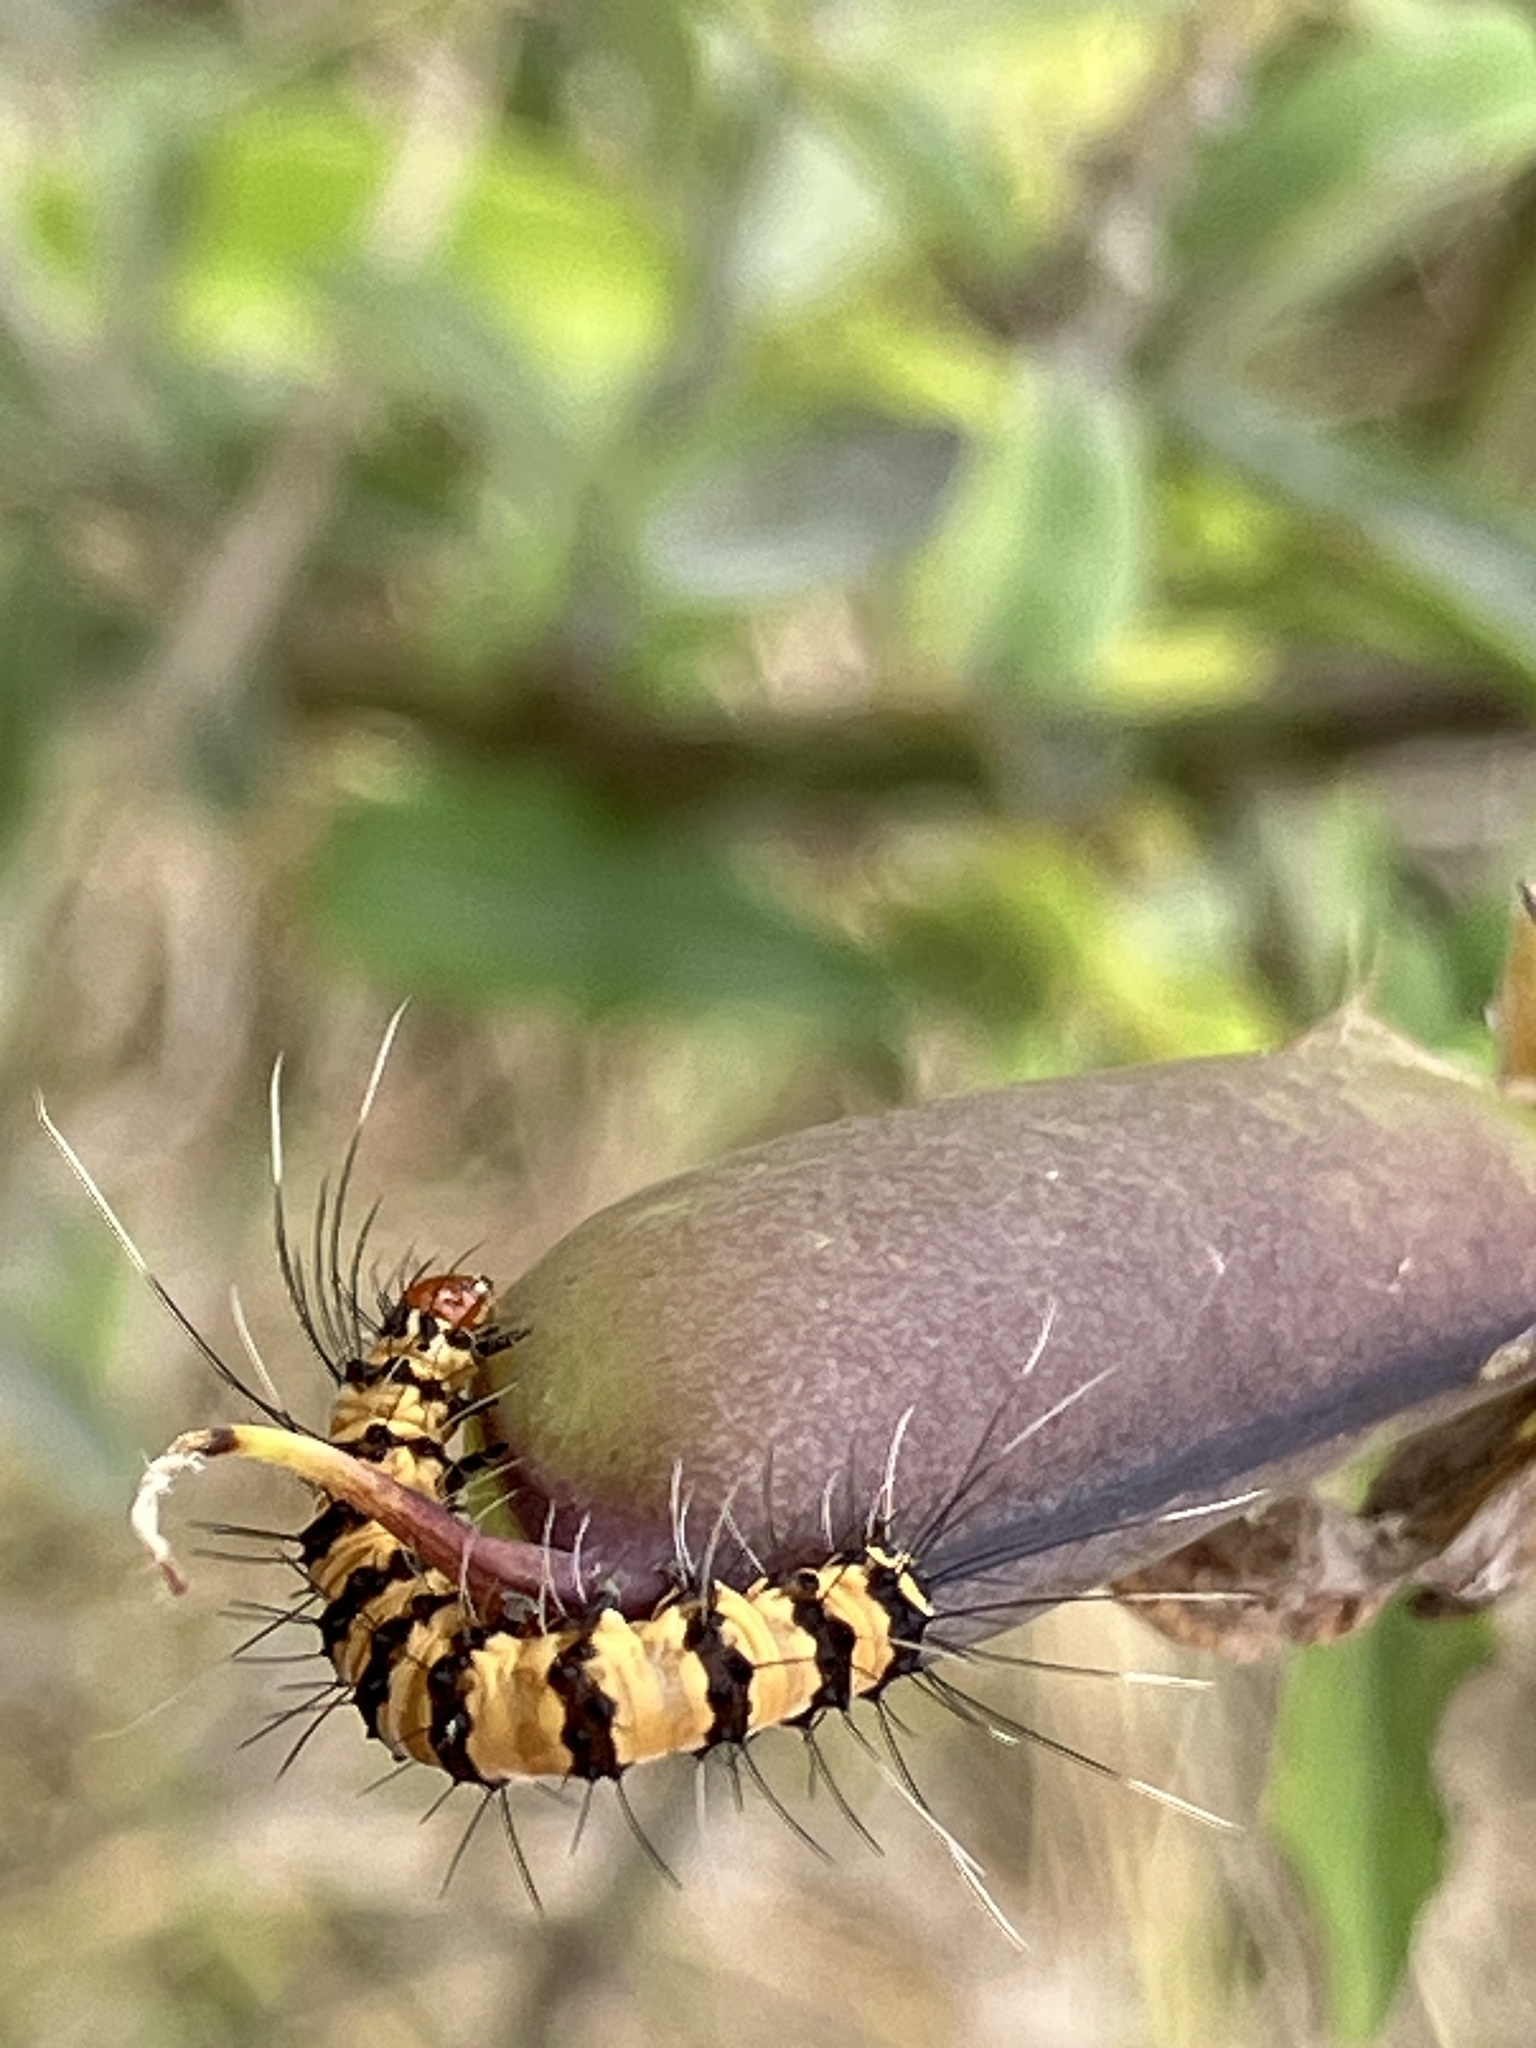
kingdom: Animalia
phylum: Arthropoda
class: Insecta
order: Lepidoptera
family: Erebidae
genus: Utetheisa
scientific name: Utetheisa ornatrix
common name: Beautiful utetheisa
